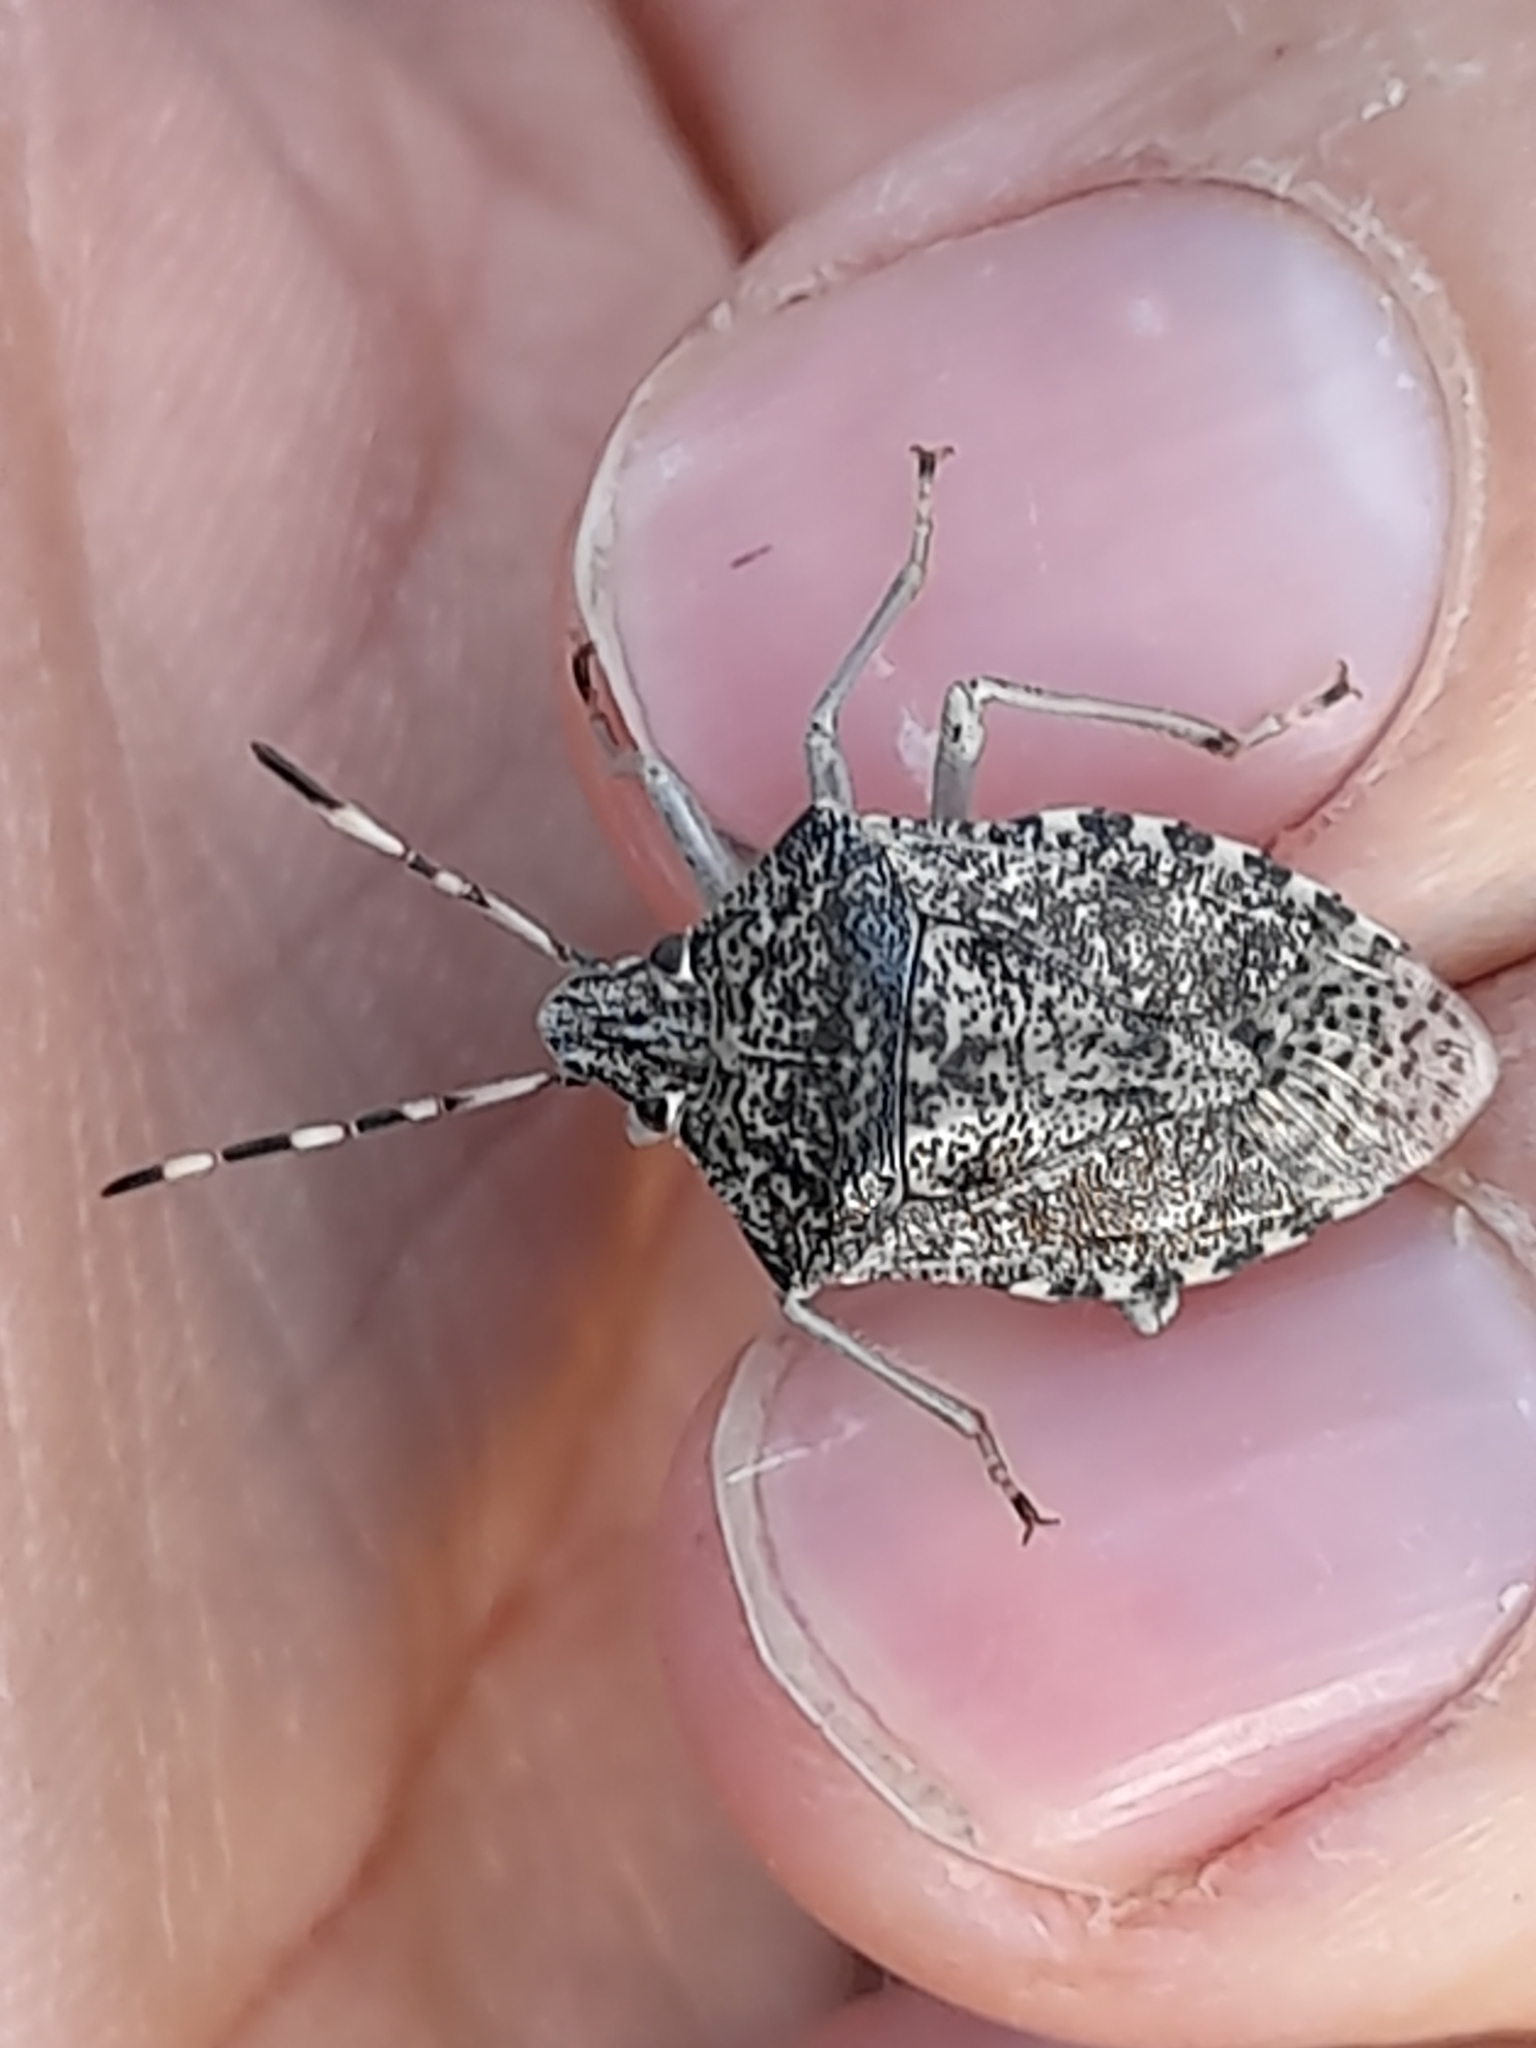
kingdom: Animalia
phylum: Arthropoda
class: Insecta
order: Hemiptera
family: Pentatomidae
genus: Rhaphigaster
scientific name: Rhaphigaster nebulosa
